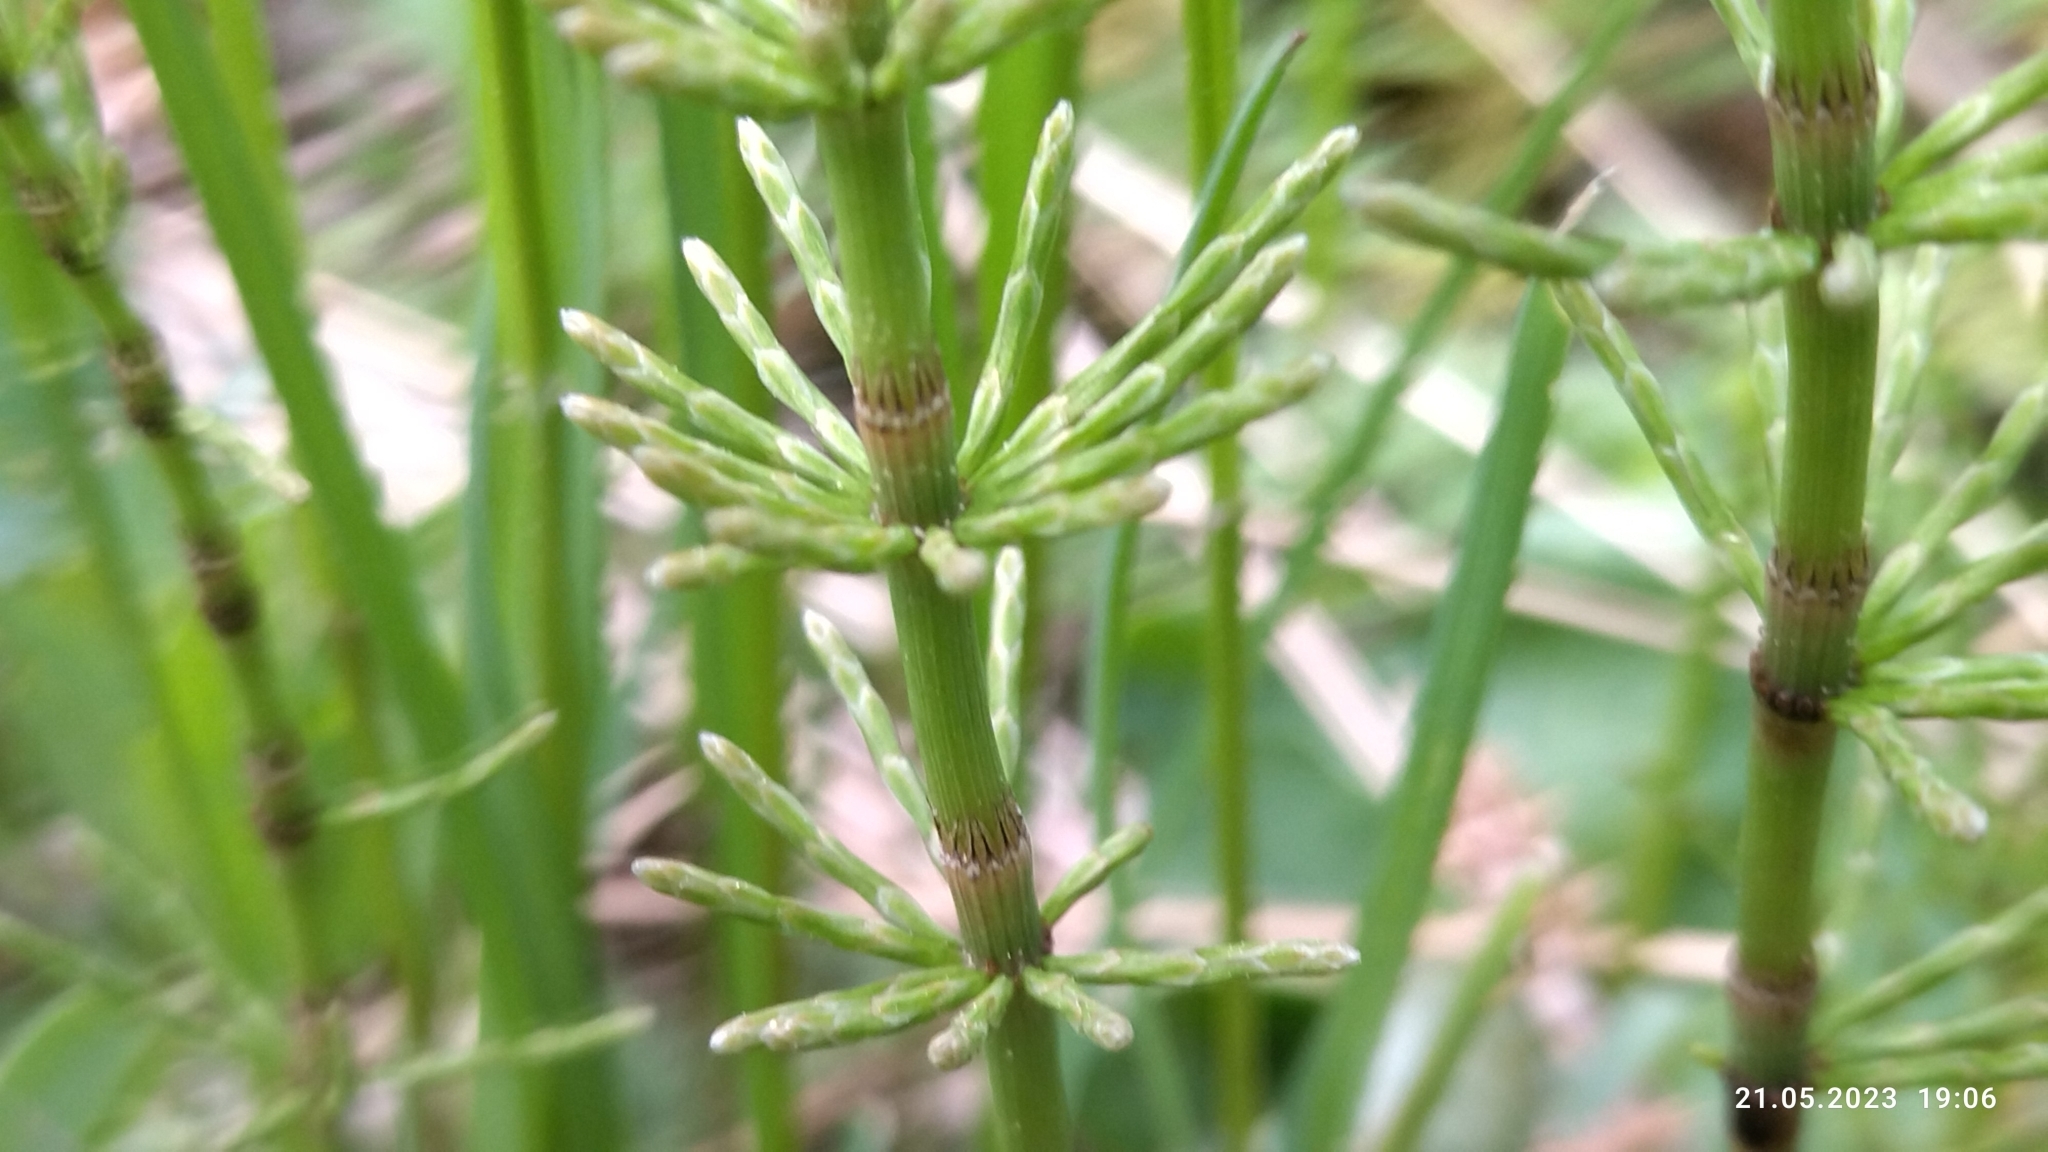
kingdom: Plantae
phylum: Tracheophyta
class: Polypodiopsida
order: Equisetales
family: Equisetaceae
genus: Equisetum
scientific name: Equisetum pratense
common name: Meadow horsetail
